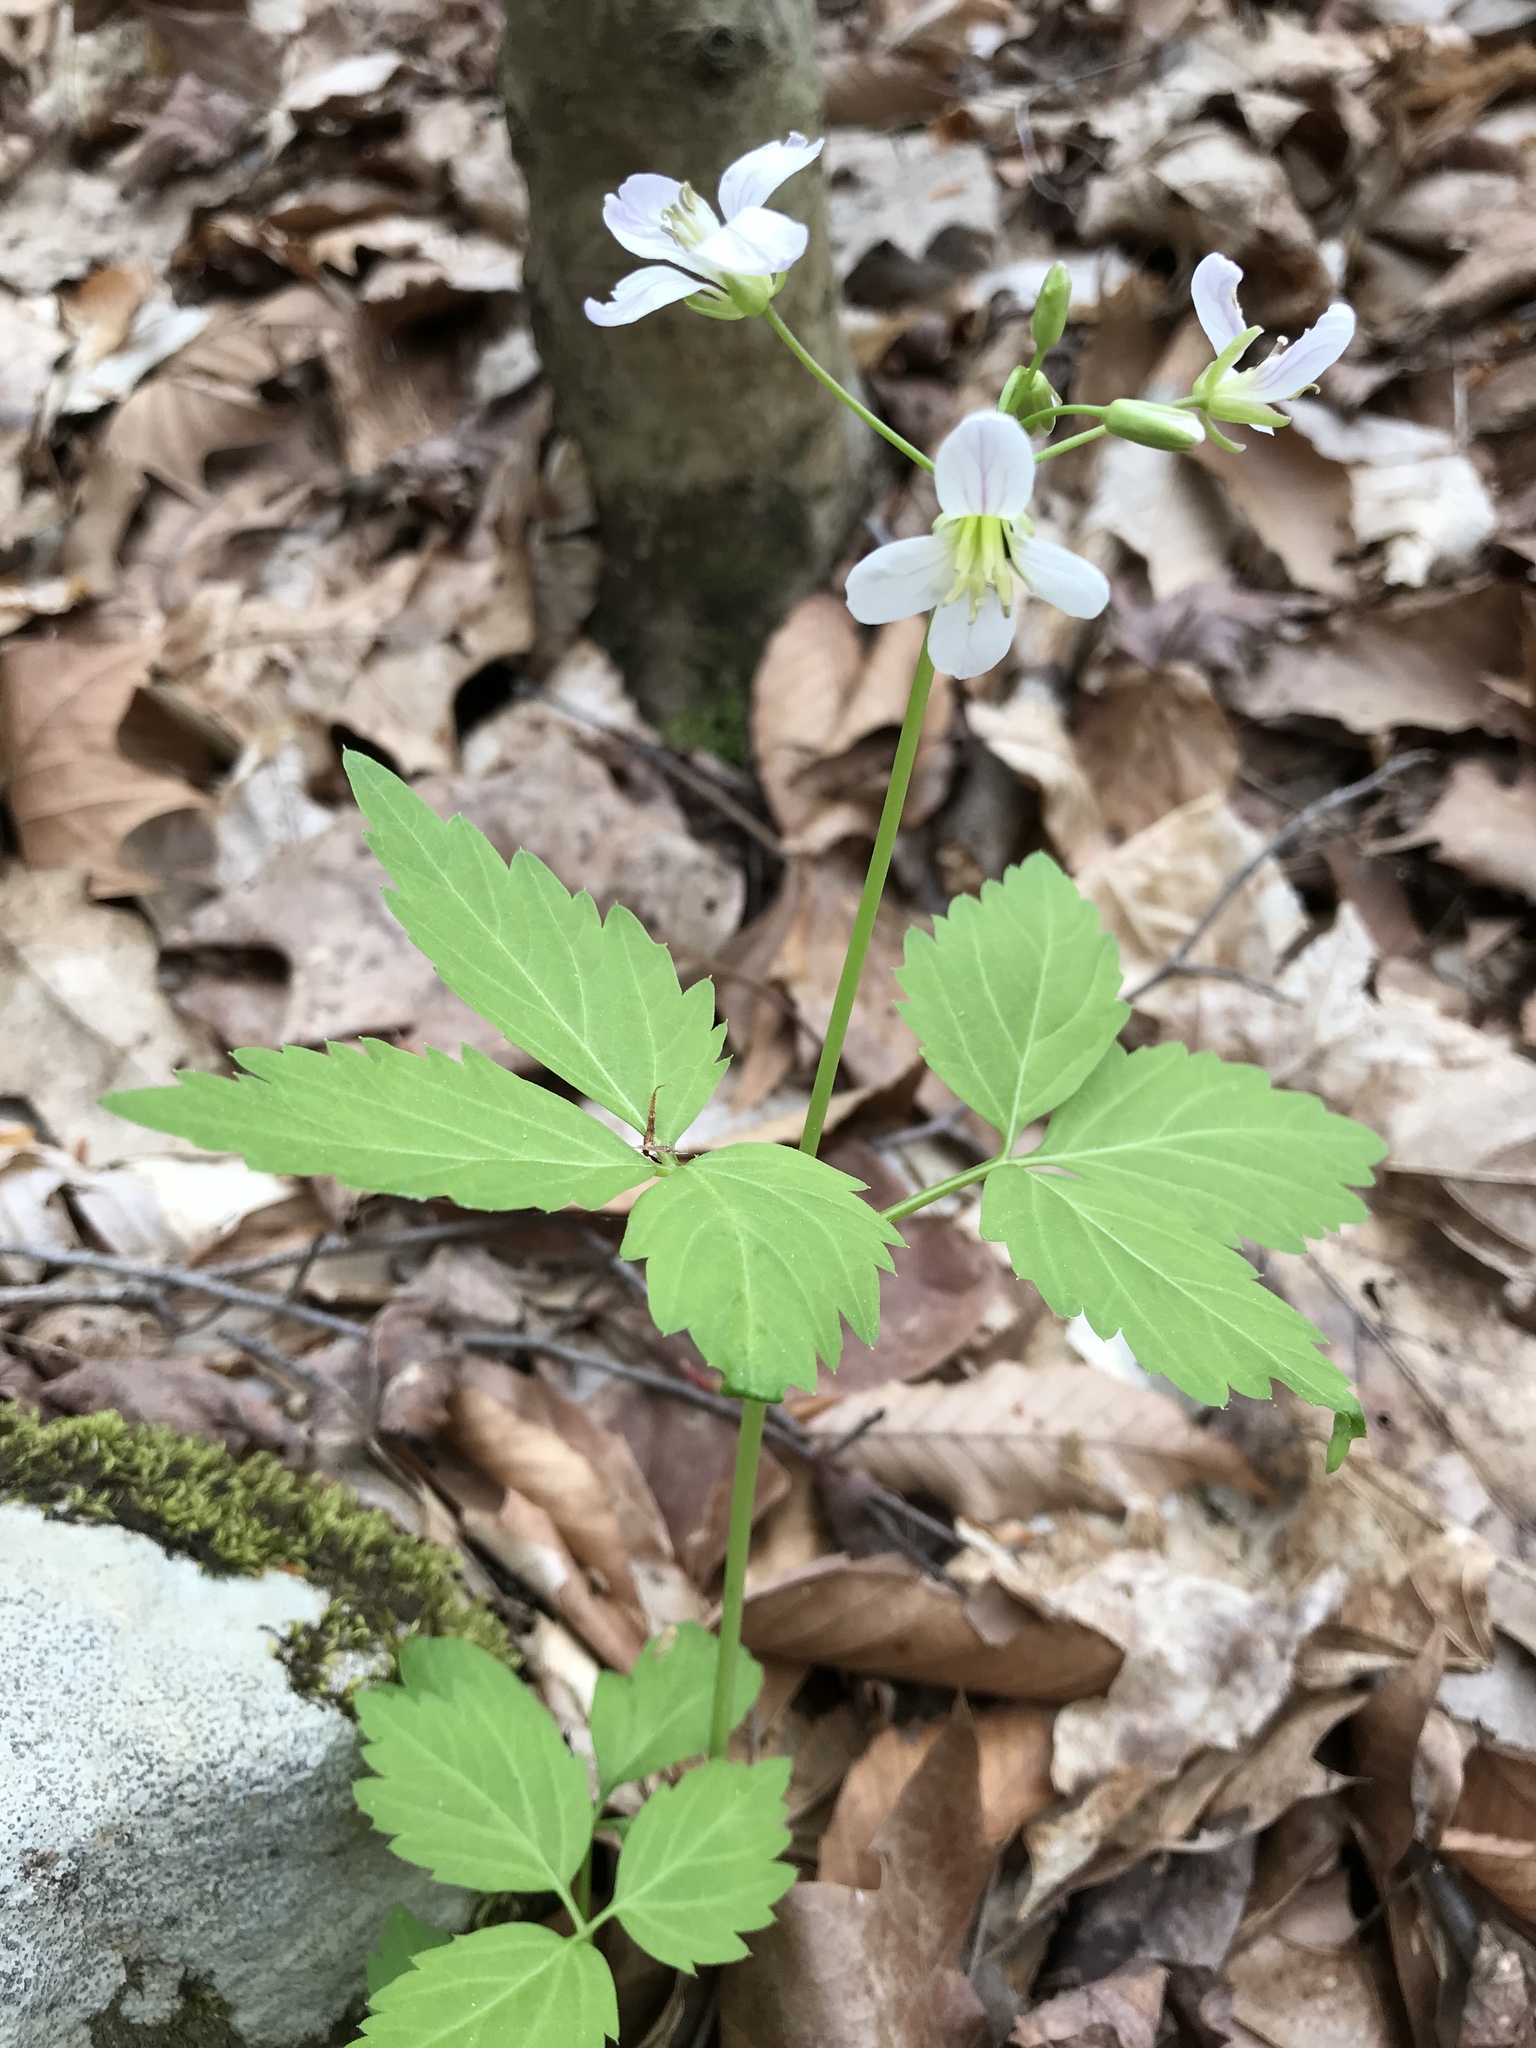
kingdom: Plantae
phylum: Tracheophyta
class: Magnoliopsida
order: Brassicales
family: Brassicaceae
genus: Cardamine
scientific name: Cardamine diphylla
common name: Broad-leaved toothwort
